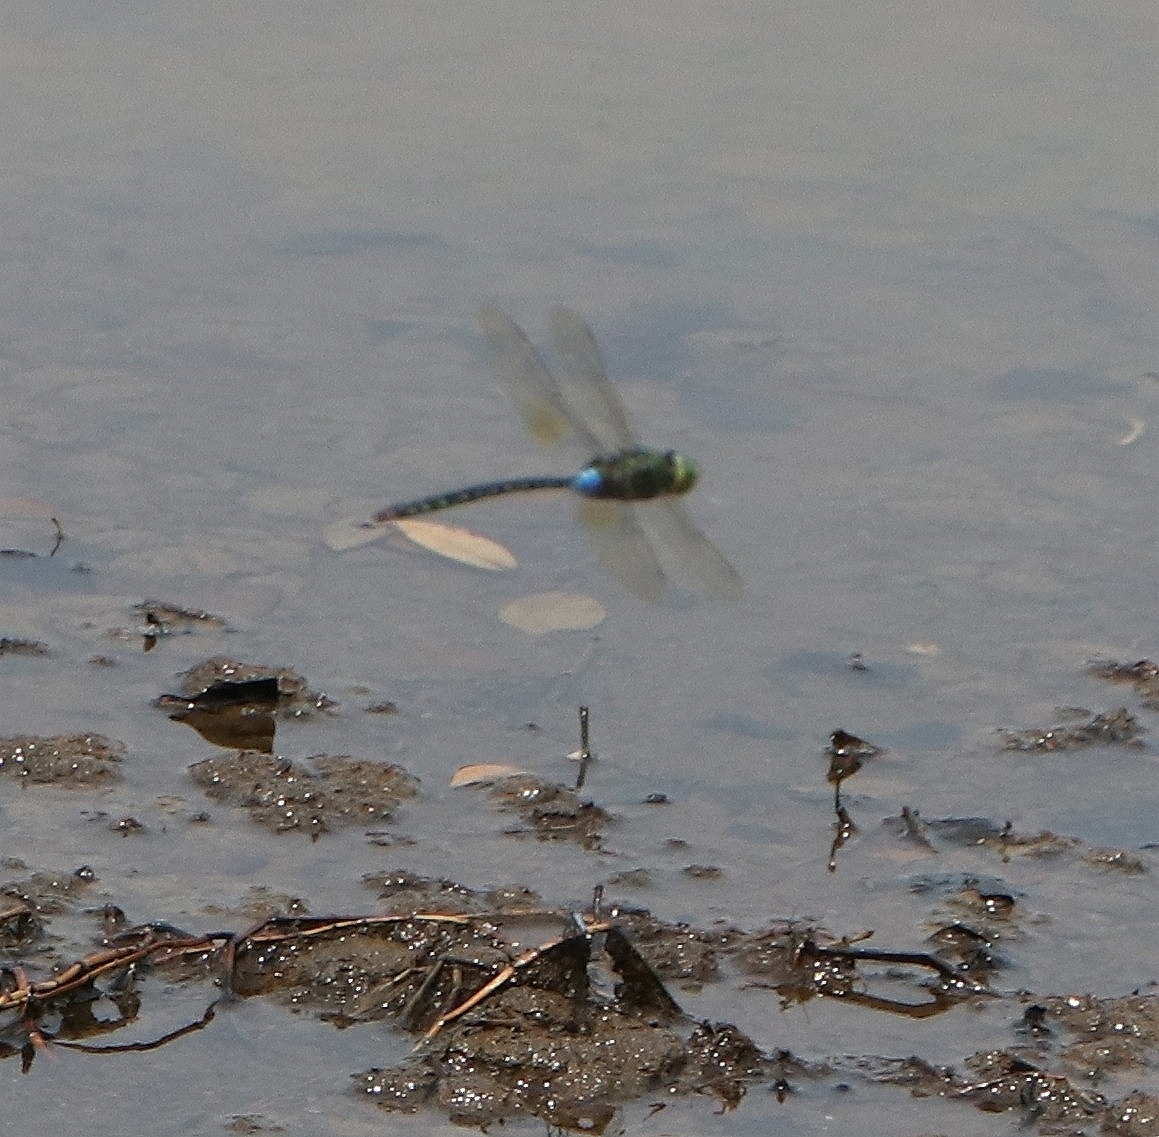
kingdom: Animalia
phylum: Arthropoda
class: Insecta
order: Odonata
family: Aeshnidae
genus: Anax
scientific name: Anax guttatus
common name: Emperor
